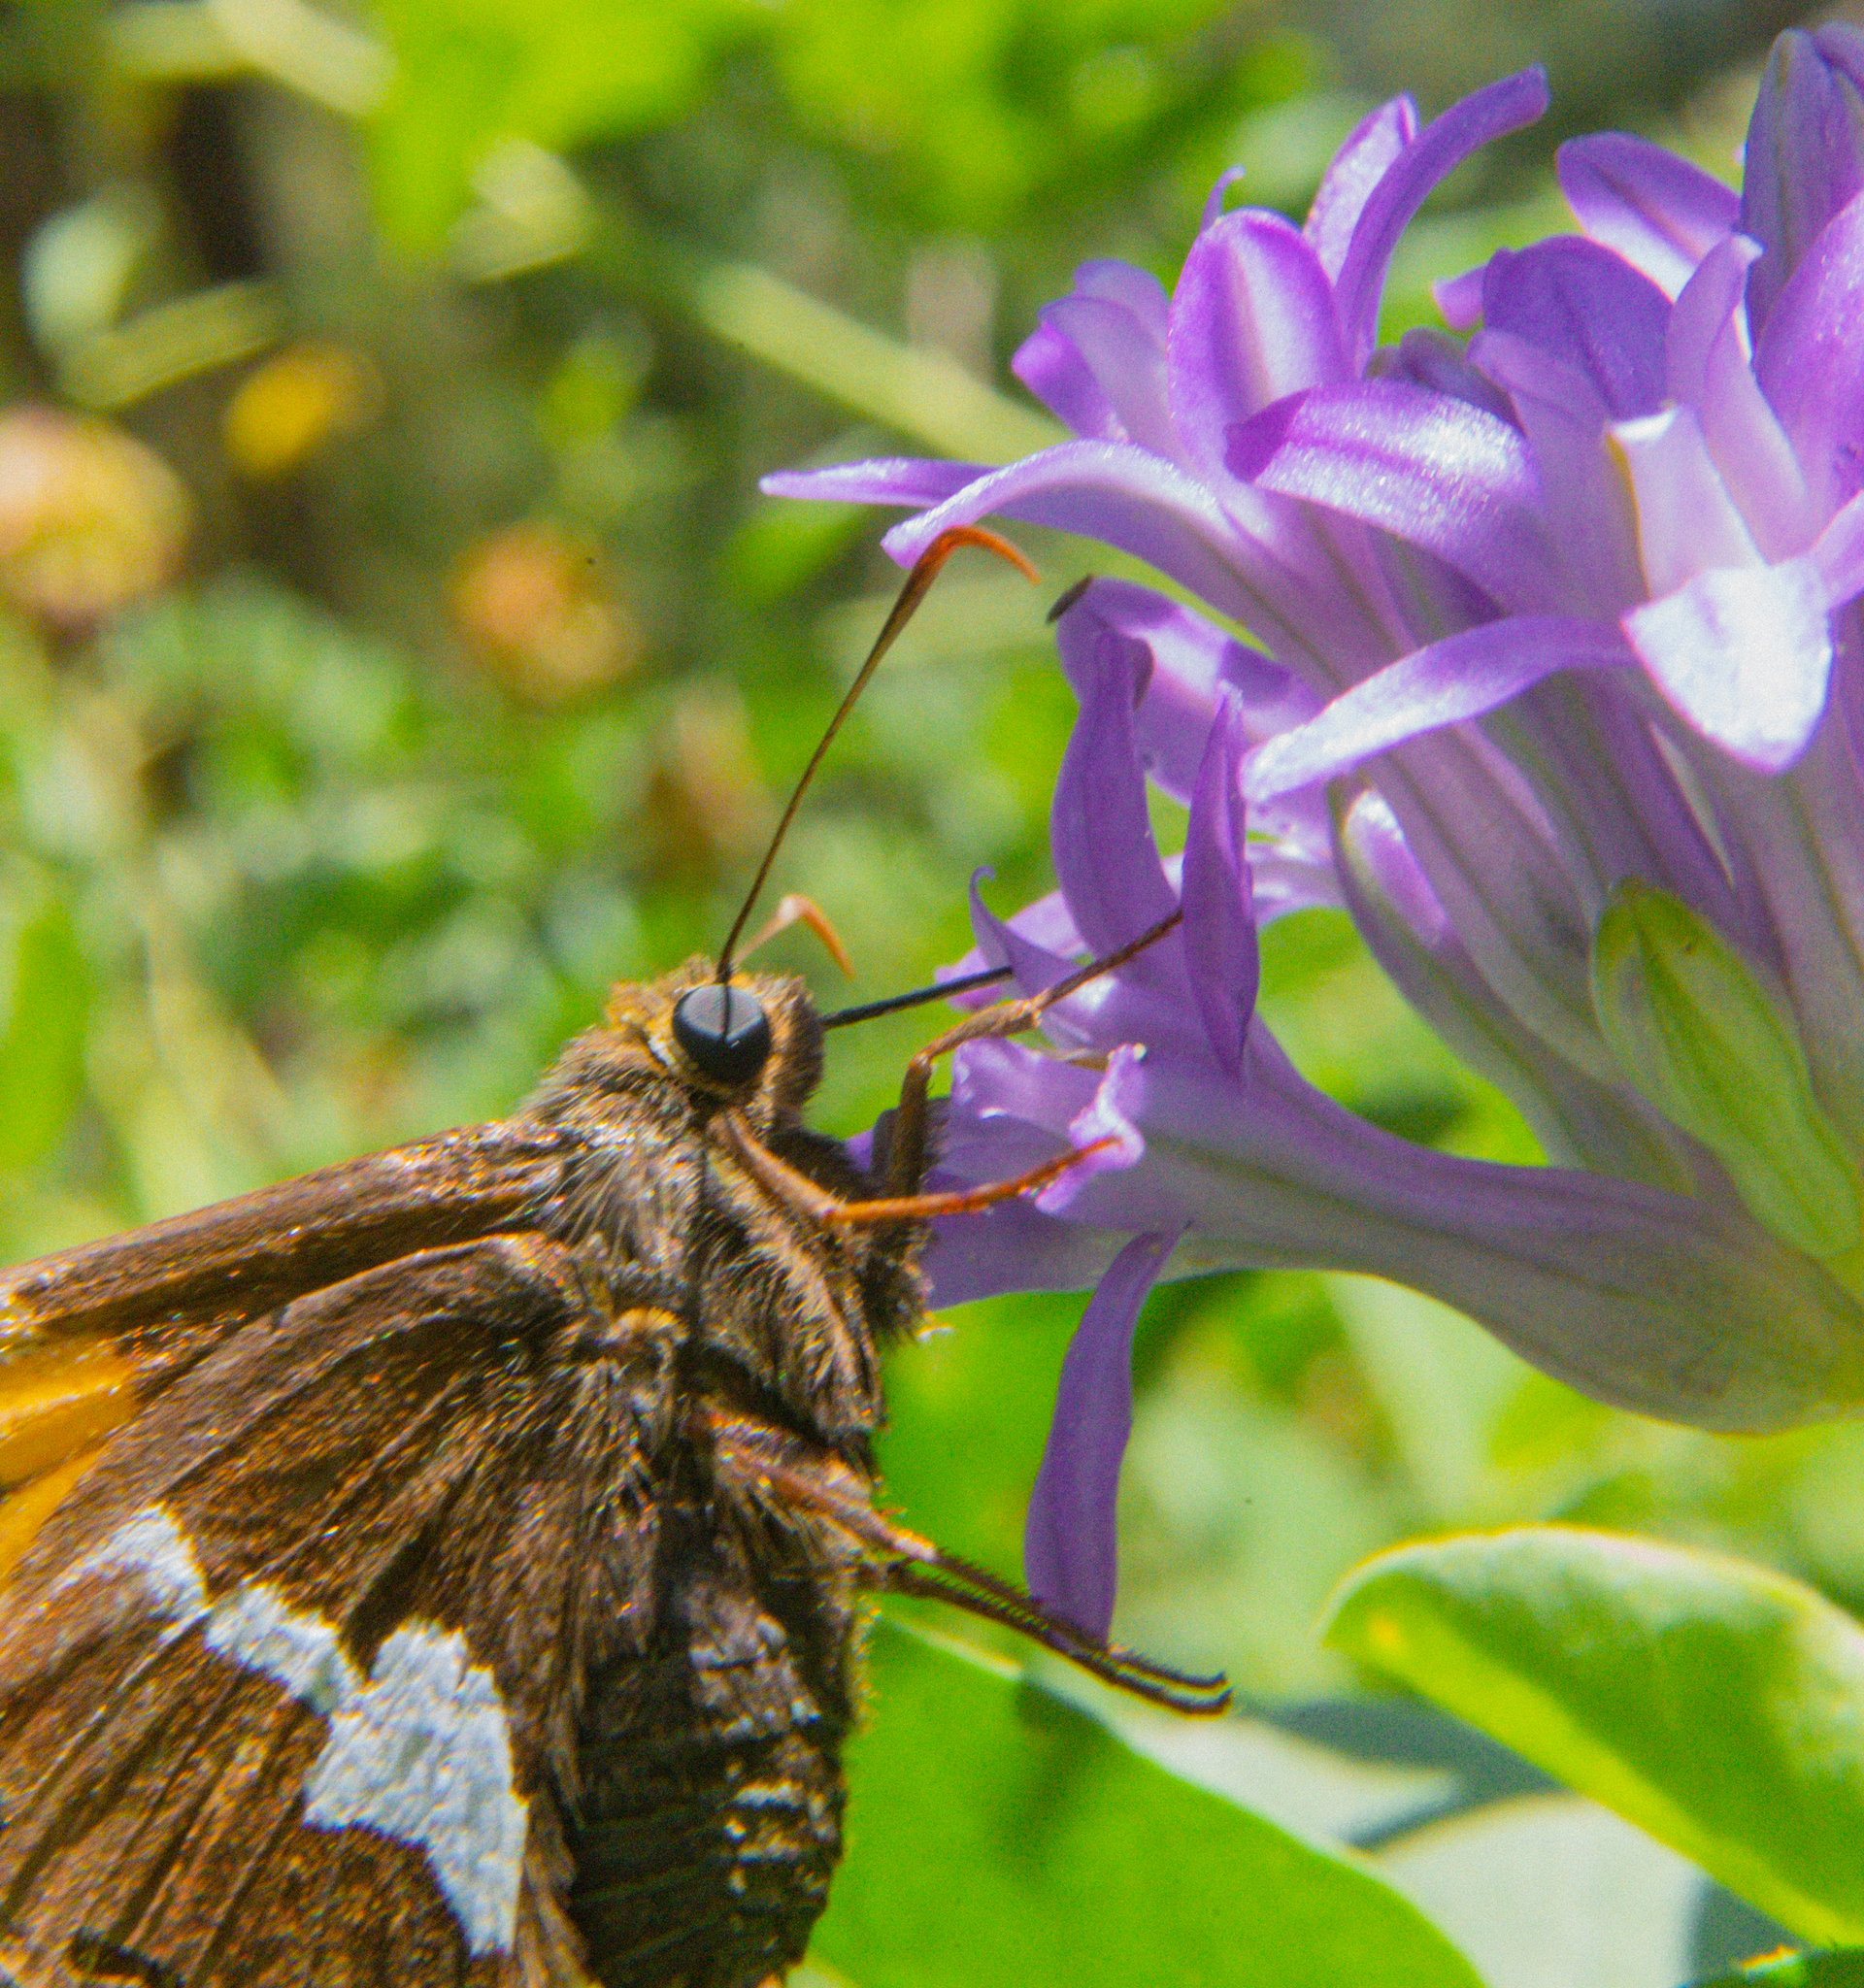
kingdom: Animalia
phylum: Arthropoda
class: Insecta
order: Lepidoptera
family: Hesperiidae
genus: Epargyreus
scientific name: Epargyreus clarus
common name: Silver-spotted skipper
